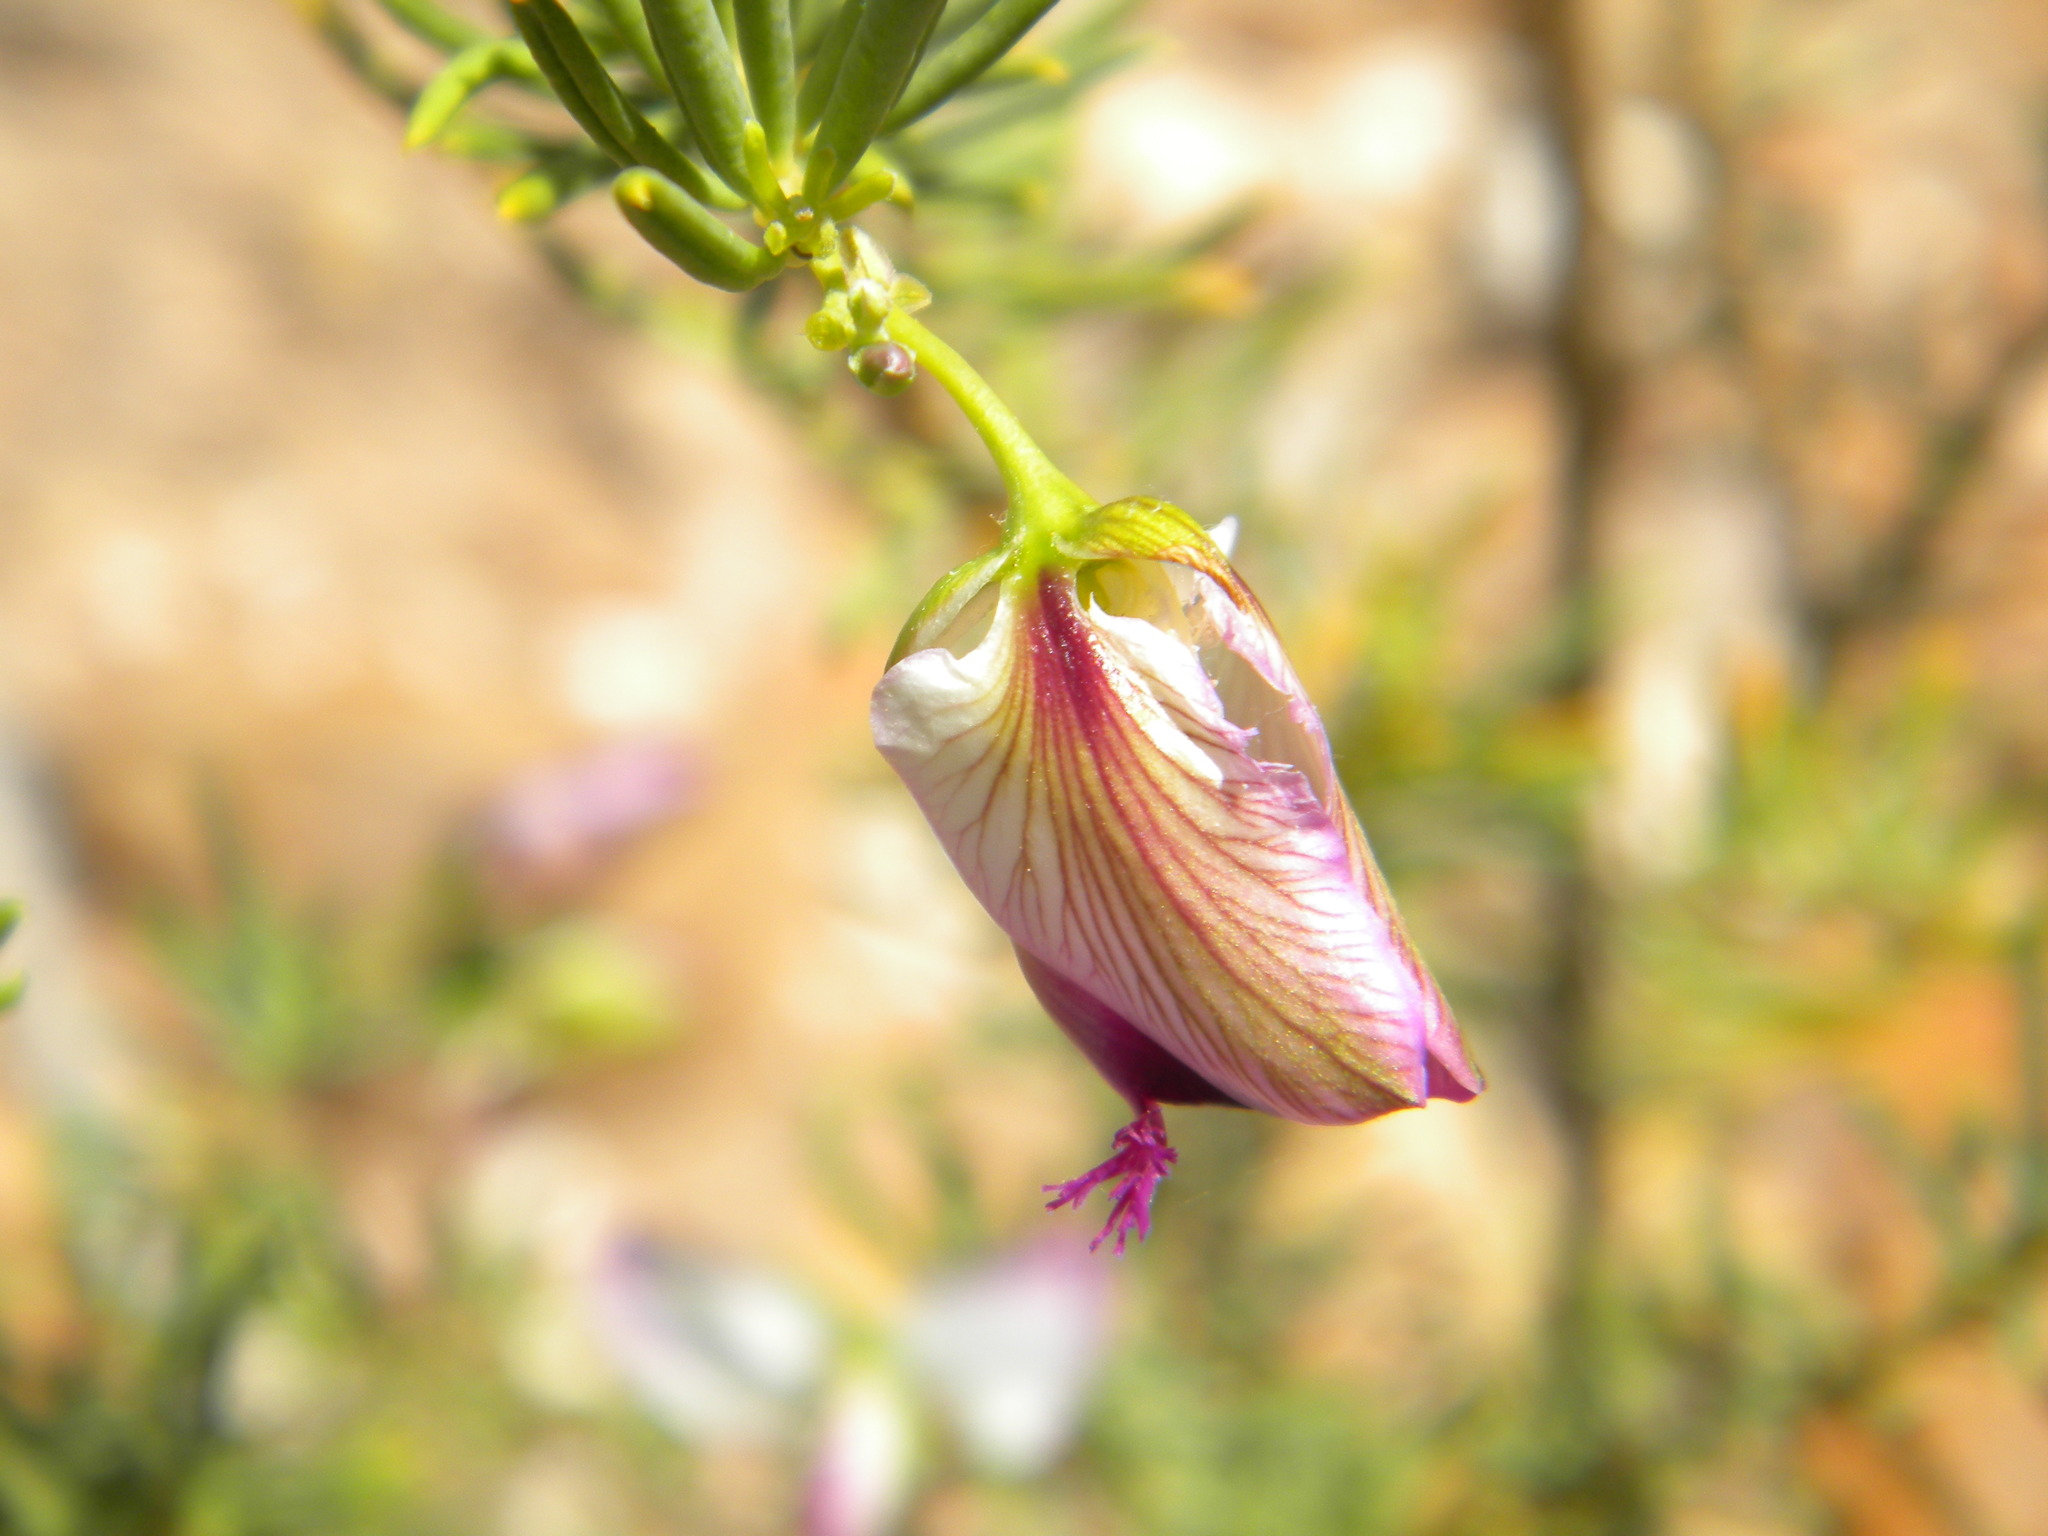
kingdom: Plantae
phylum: Tracheophyta
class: Magnoliopsida
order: Fabales
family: Polygalaceae
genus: Polygala
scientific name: Polygala myrtifolia
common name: Myrtle-leaf milkwort
